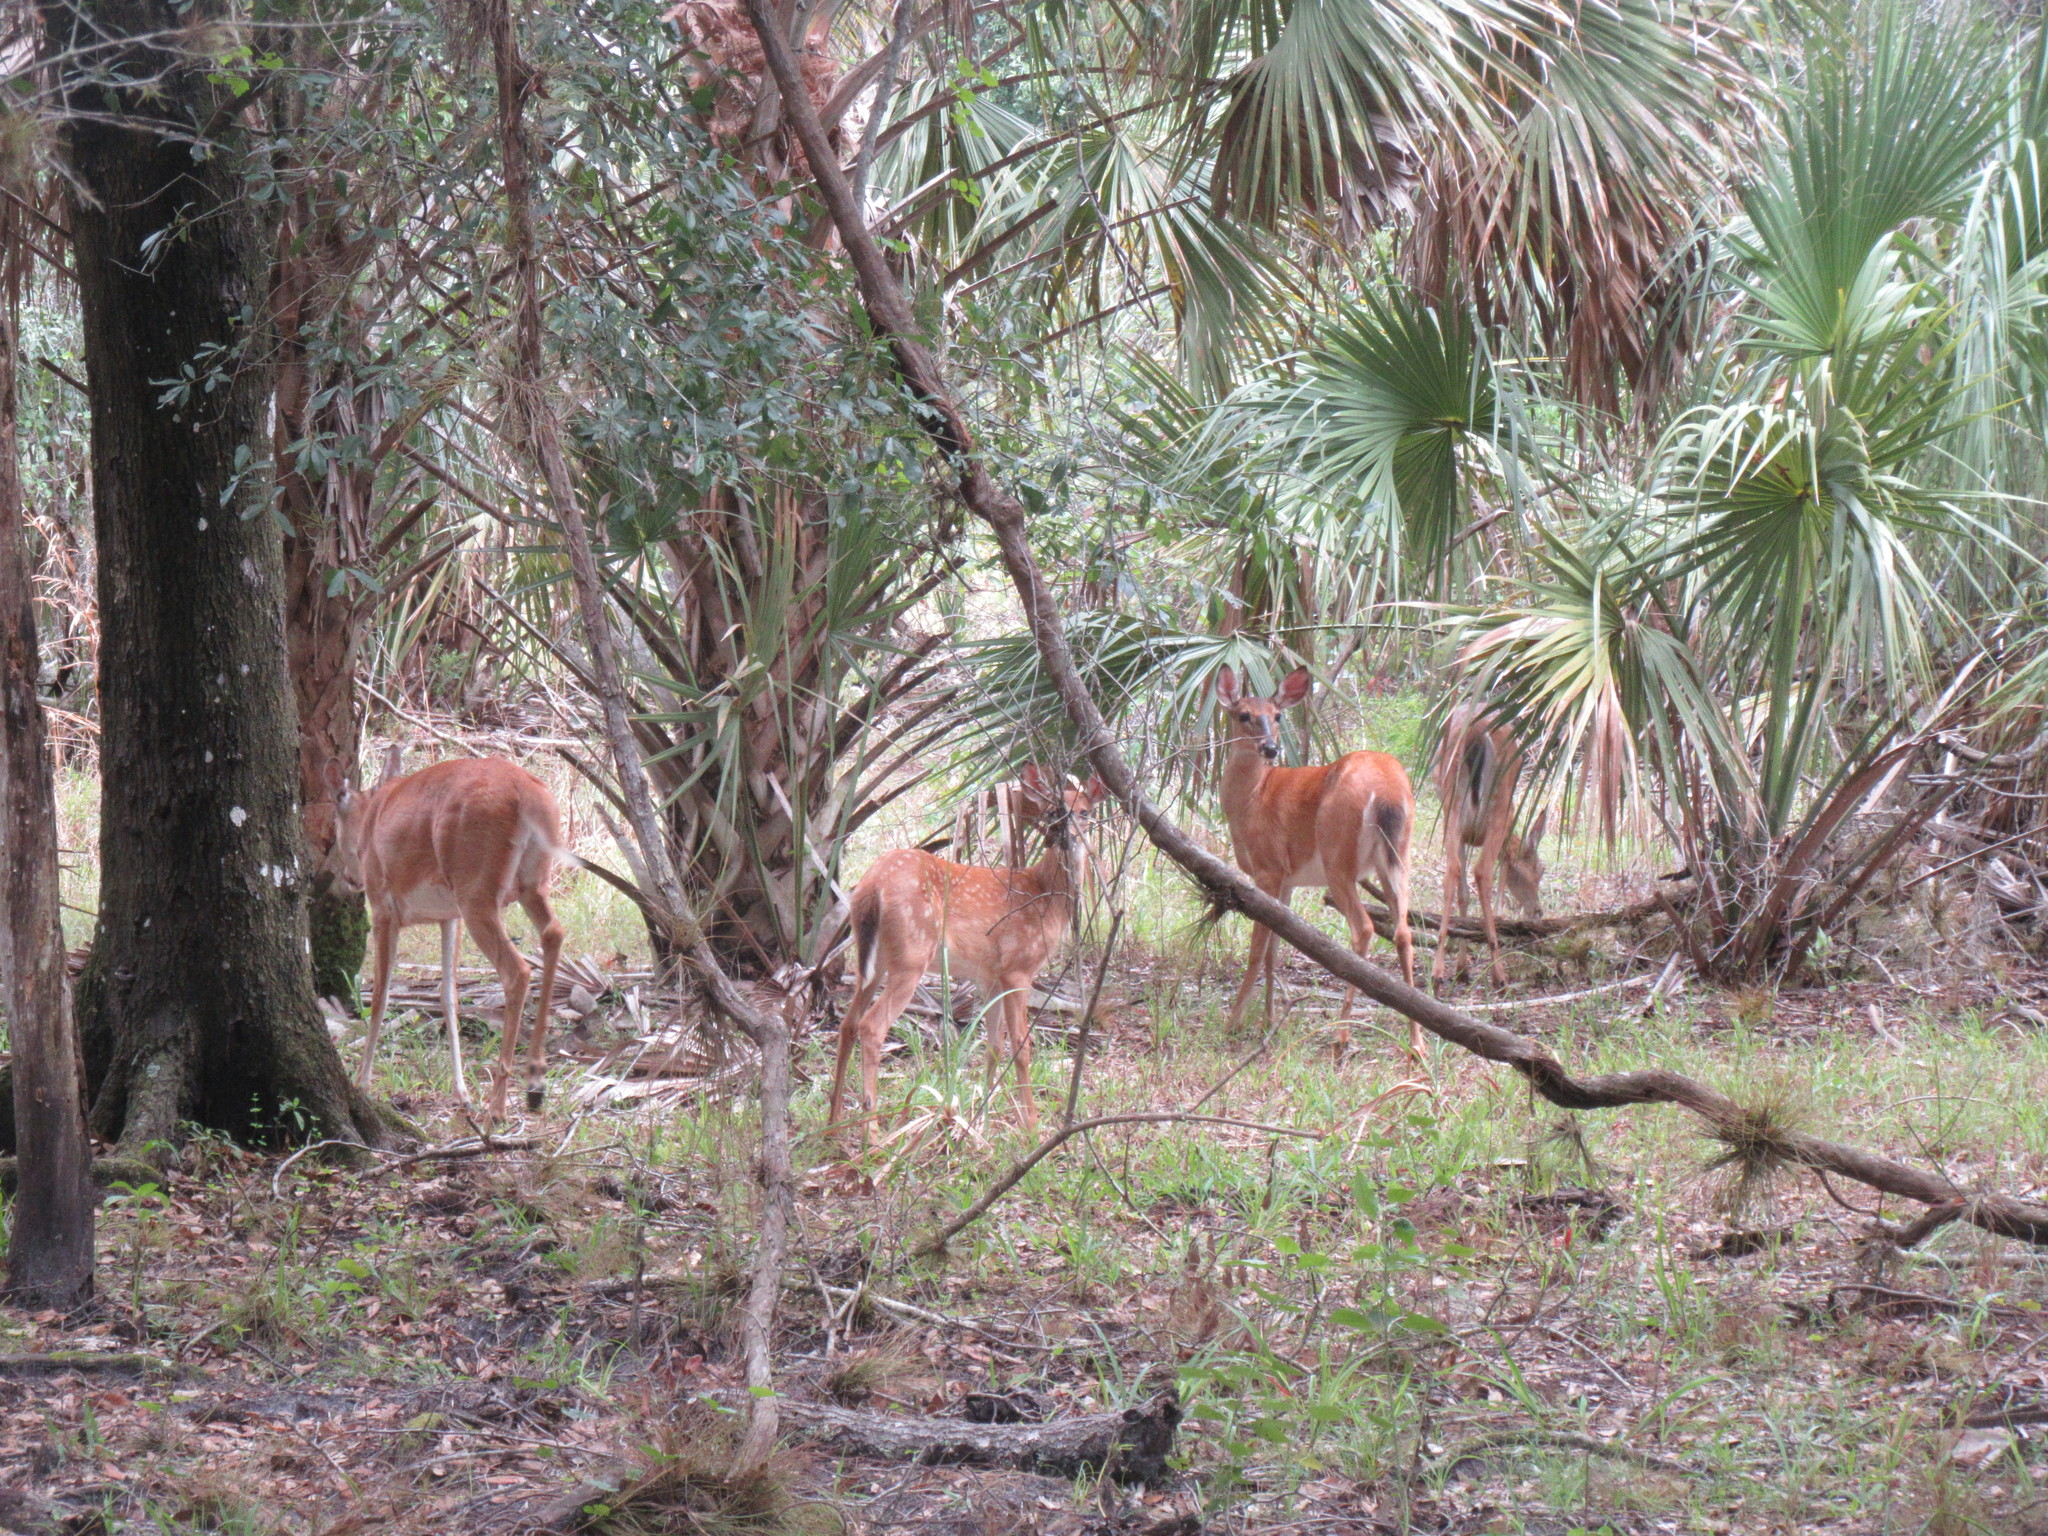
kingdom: Animalia
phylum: Chordata
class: Mammalia
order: Artiodactyla
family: Cervidae
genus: Odocoileus
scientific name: Odocoileus virginianus
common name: White-tailed deer
